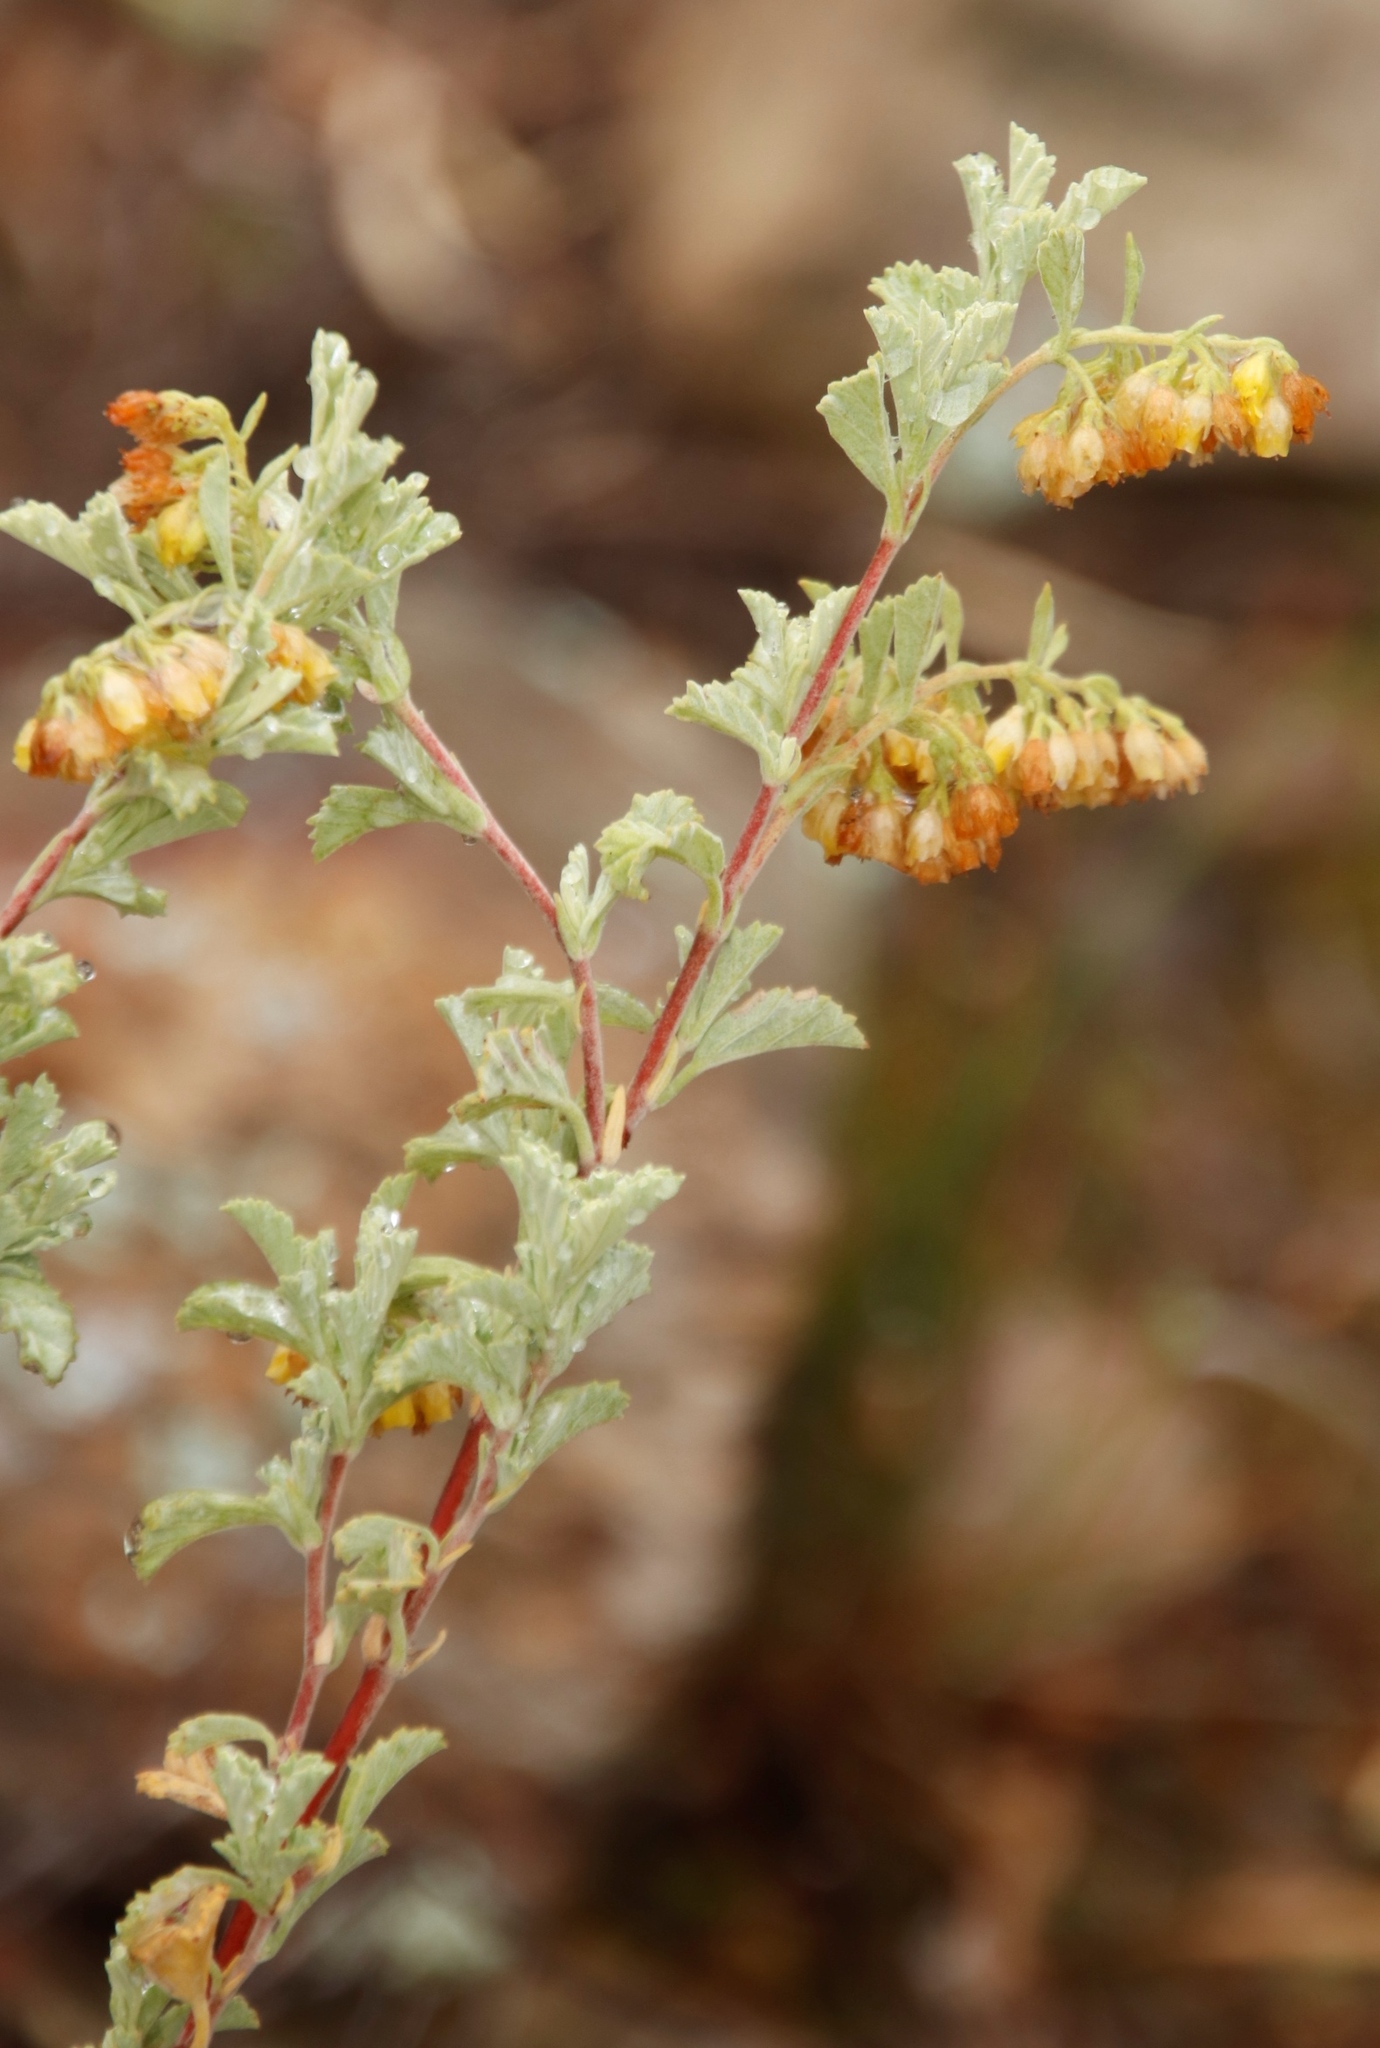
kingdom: Plantae
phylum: Tracheophyta
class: Magnoliopsida
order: Malvales
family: Malvaceae
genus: Hermannia
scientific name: Hermannia holosericea
